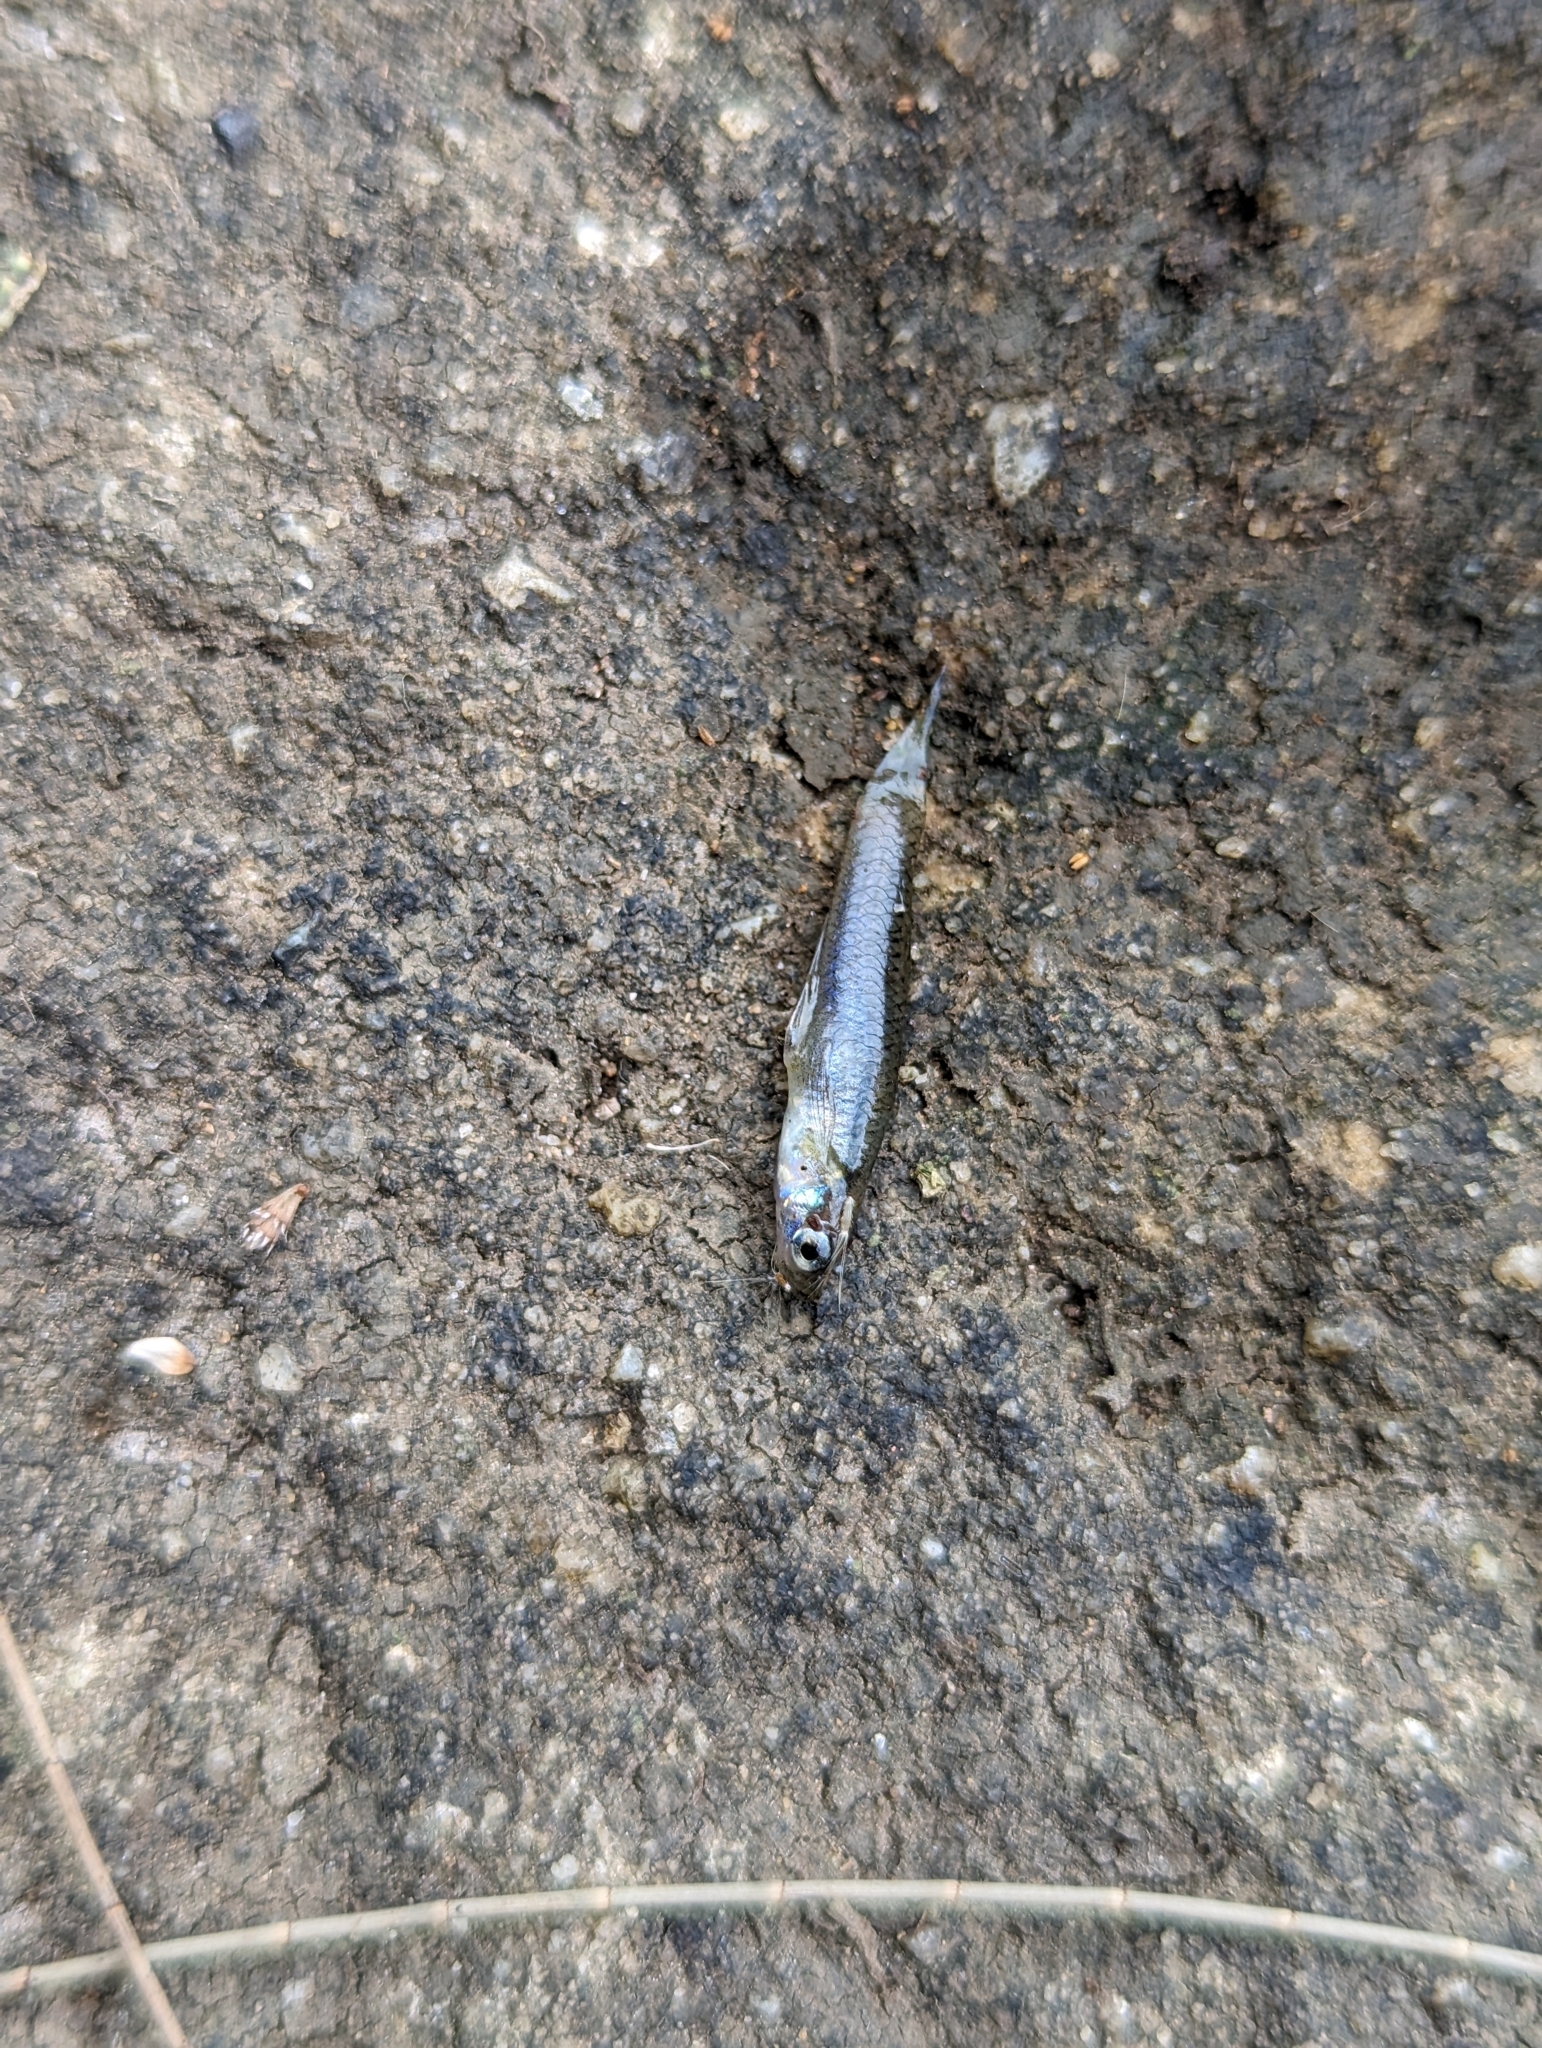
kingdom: Animalia
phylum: Chordata
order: Cyprinodontiformes
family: Poeciliidae
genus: Gambusia
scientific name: Gambusia holbrooki
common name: Eastern mosquitofish
